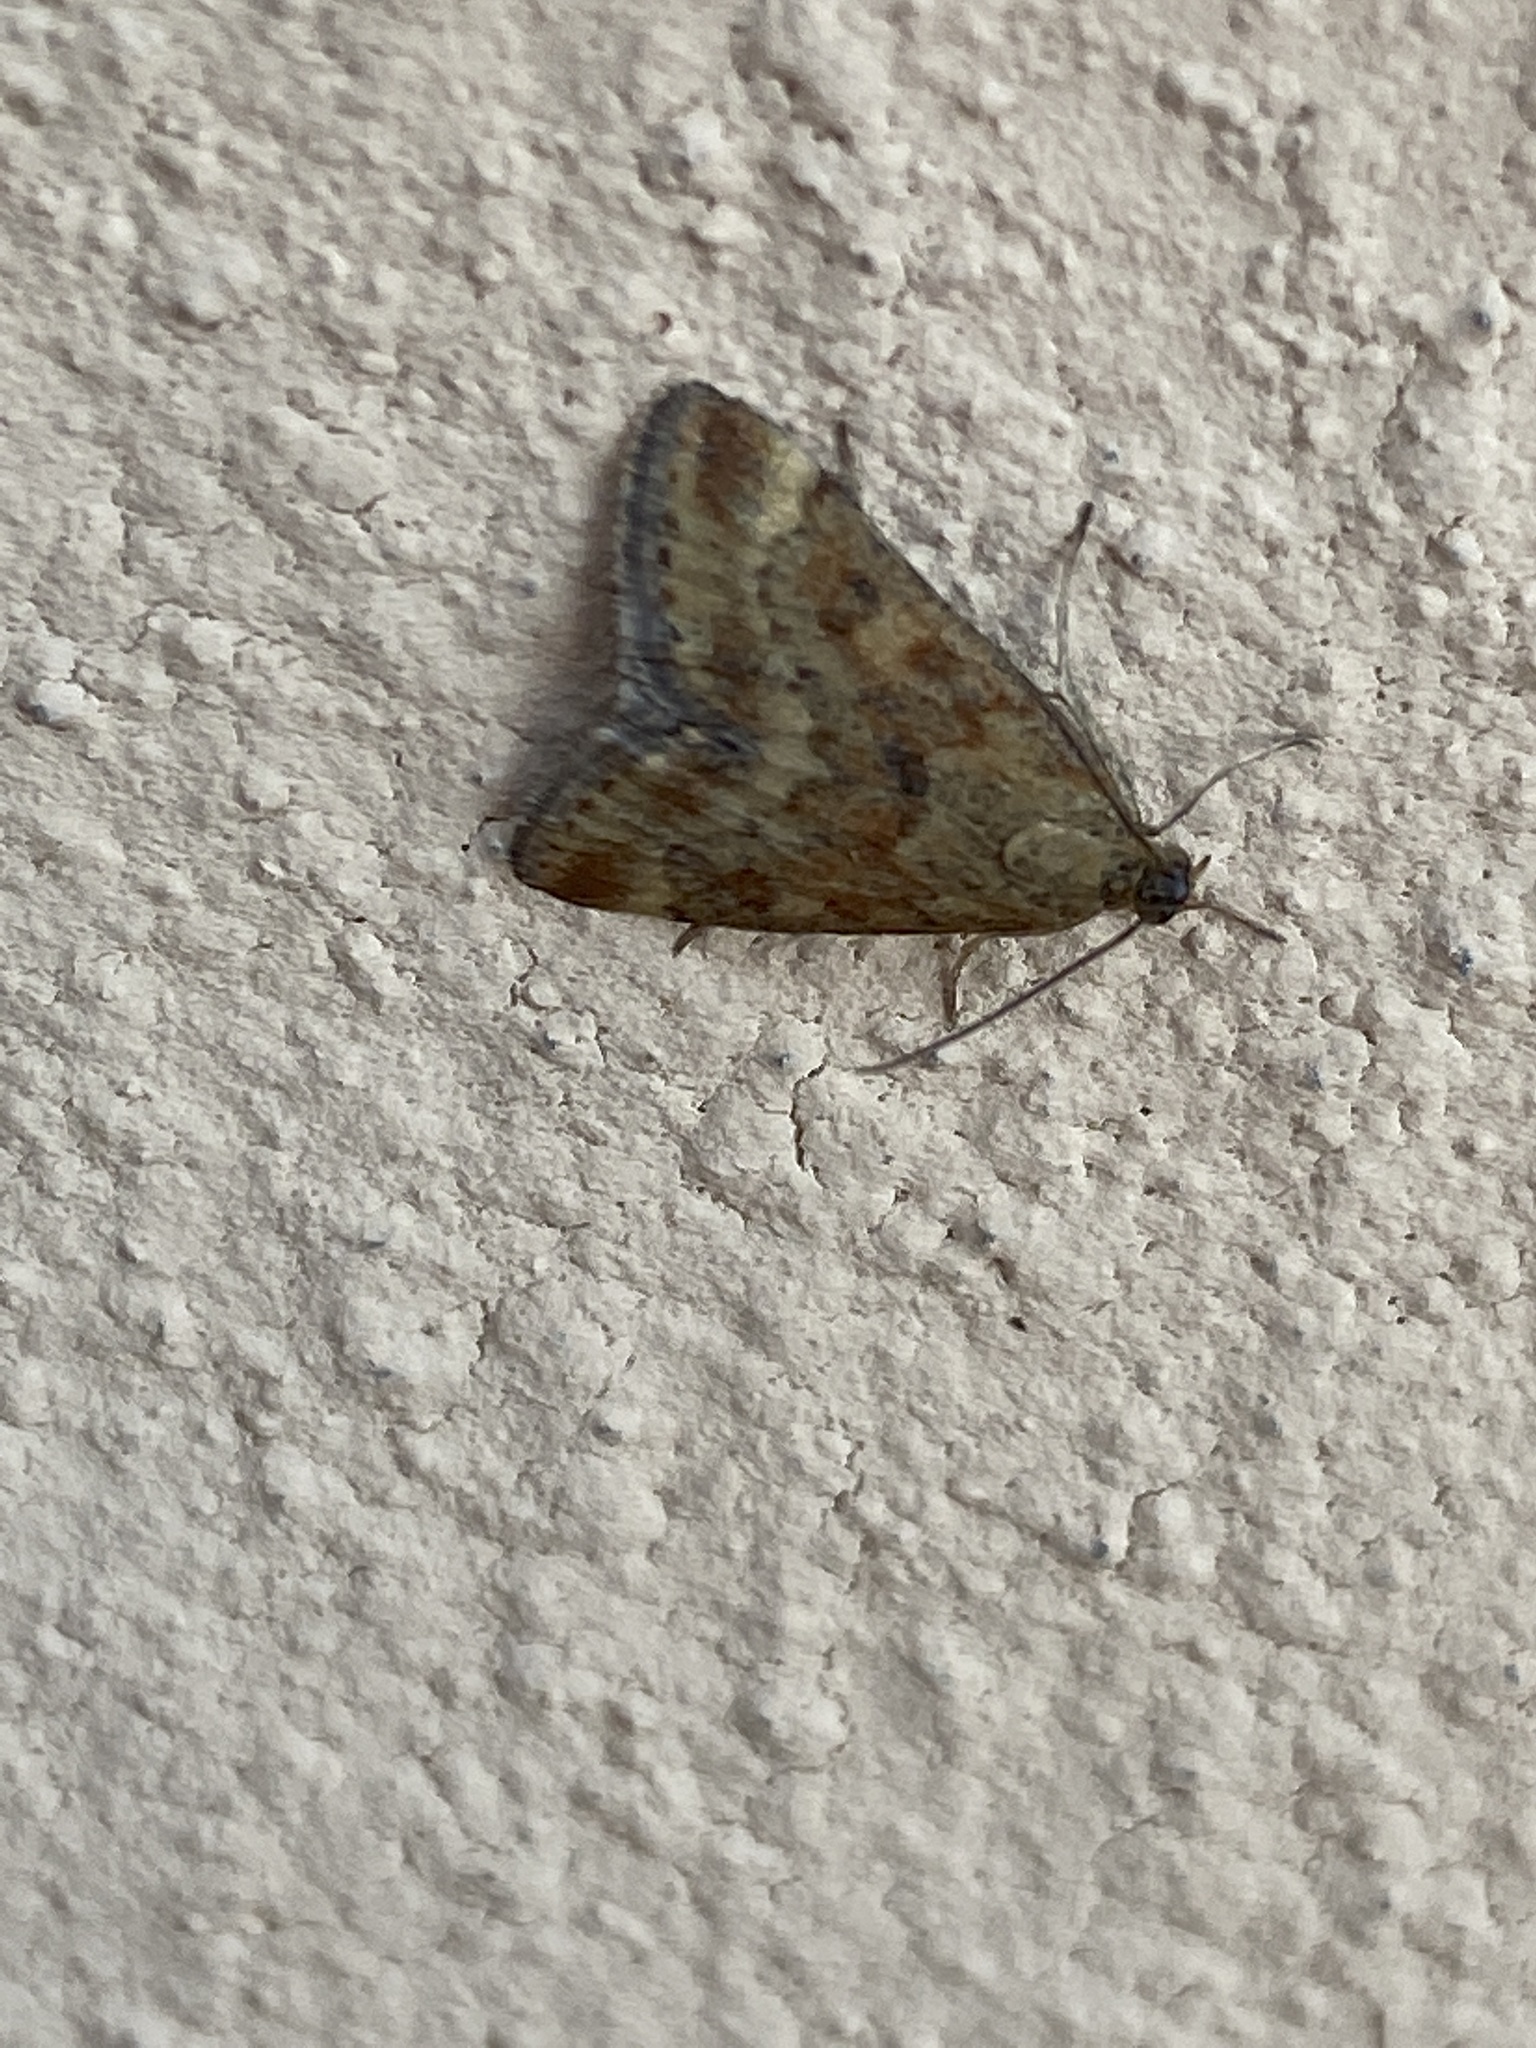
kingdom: Animalia
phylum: Arthropoda
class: Insecta
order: Lepidoptera
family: Crambidae
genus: Pyrausta
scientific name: Pyrausta despicata
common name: Straw-barred pearl
